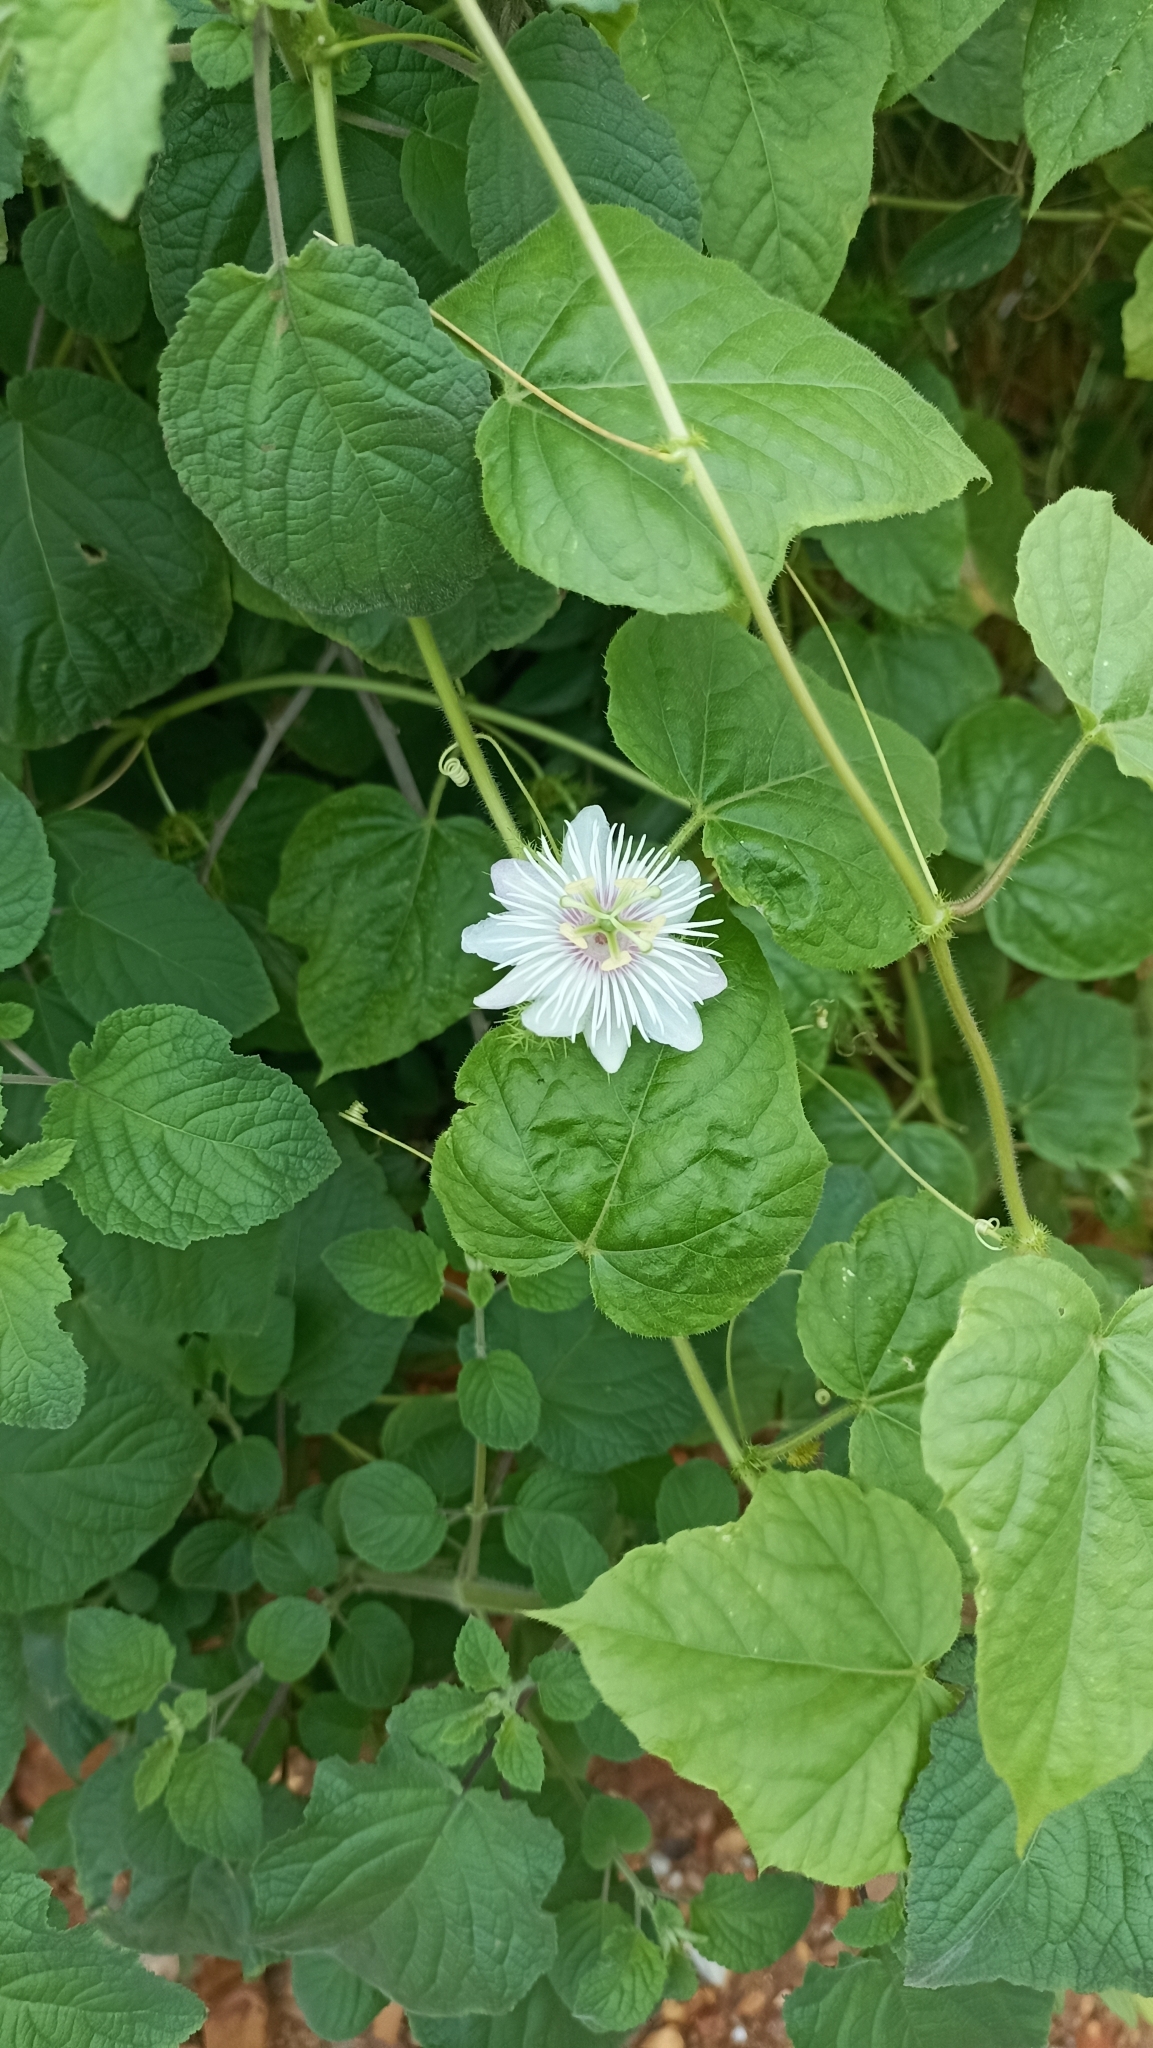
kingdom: Plantae
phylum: Tracheophyta
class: Magnoliopsida
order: Malpighiales
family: Passifloraceae
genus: Passiflora
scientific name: Passiflora foetida
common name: Fetid passionflower
